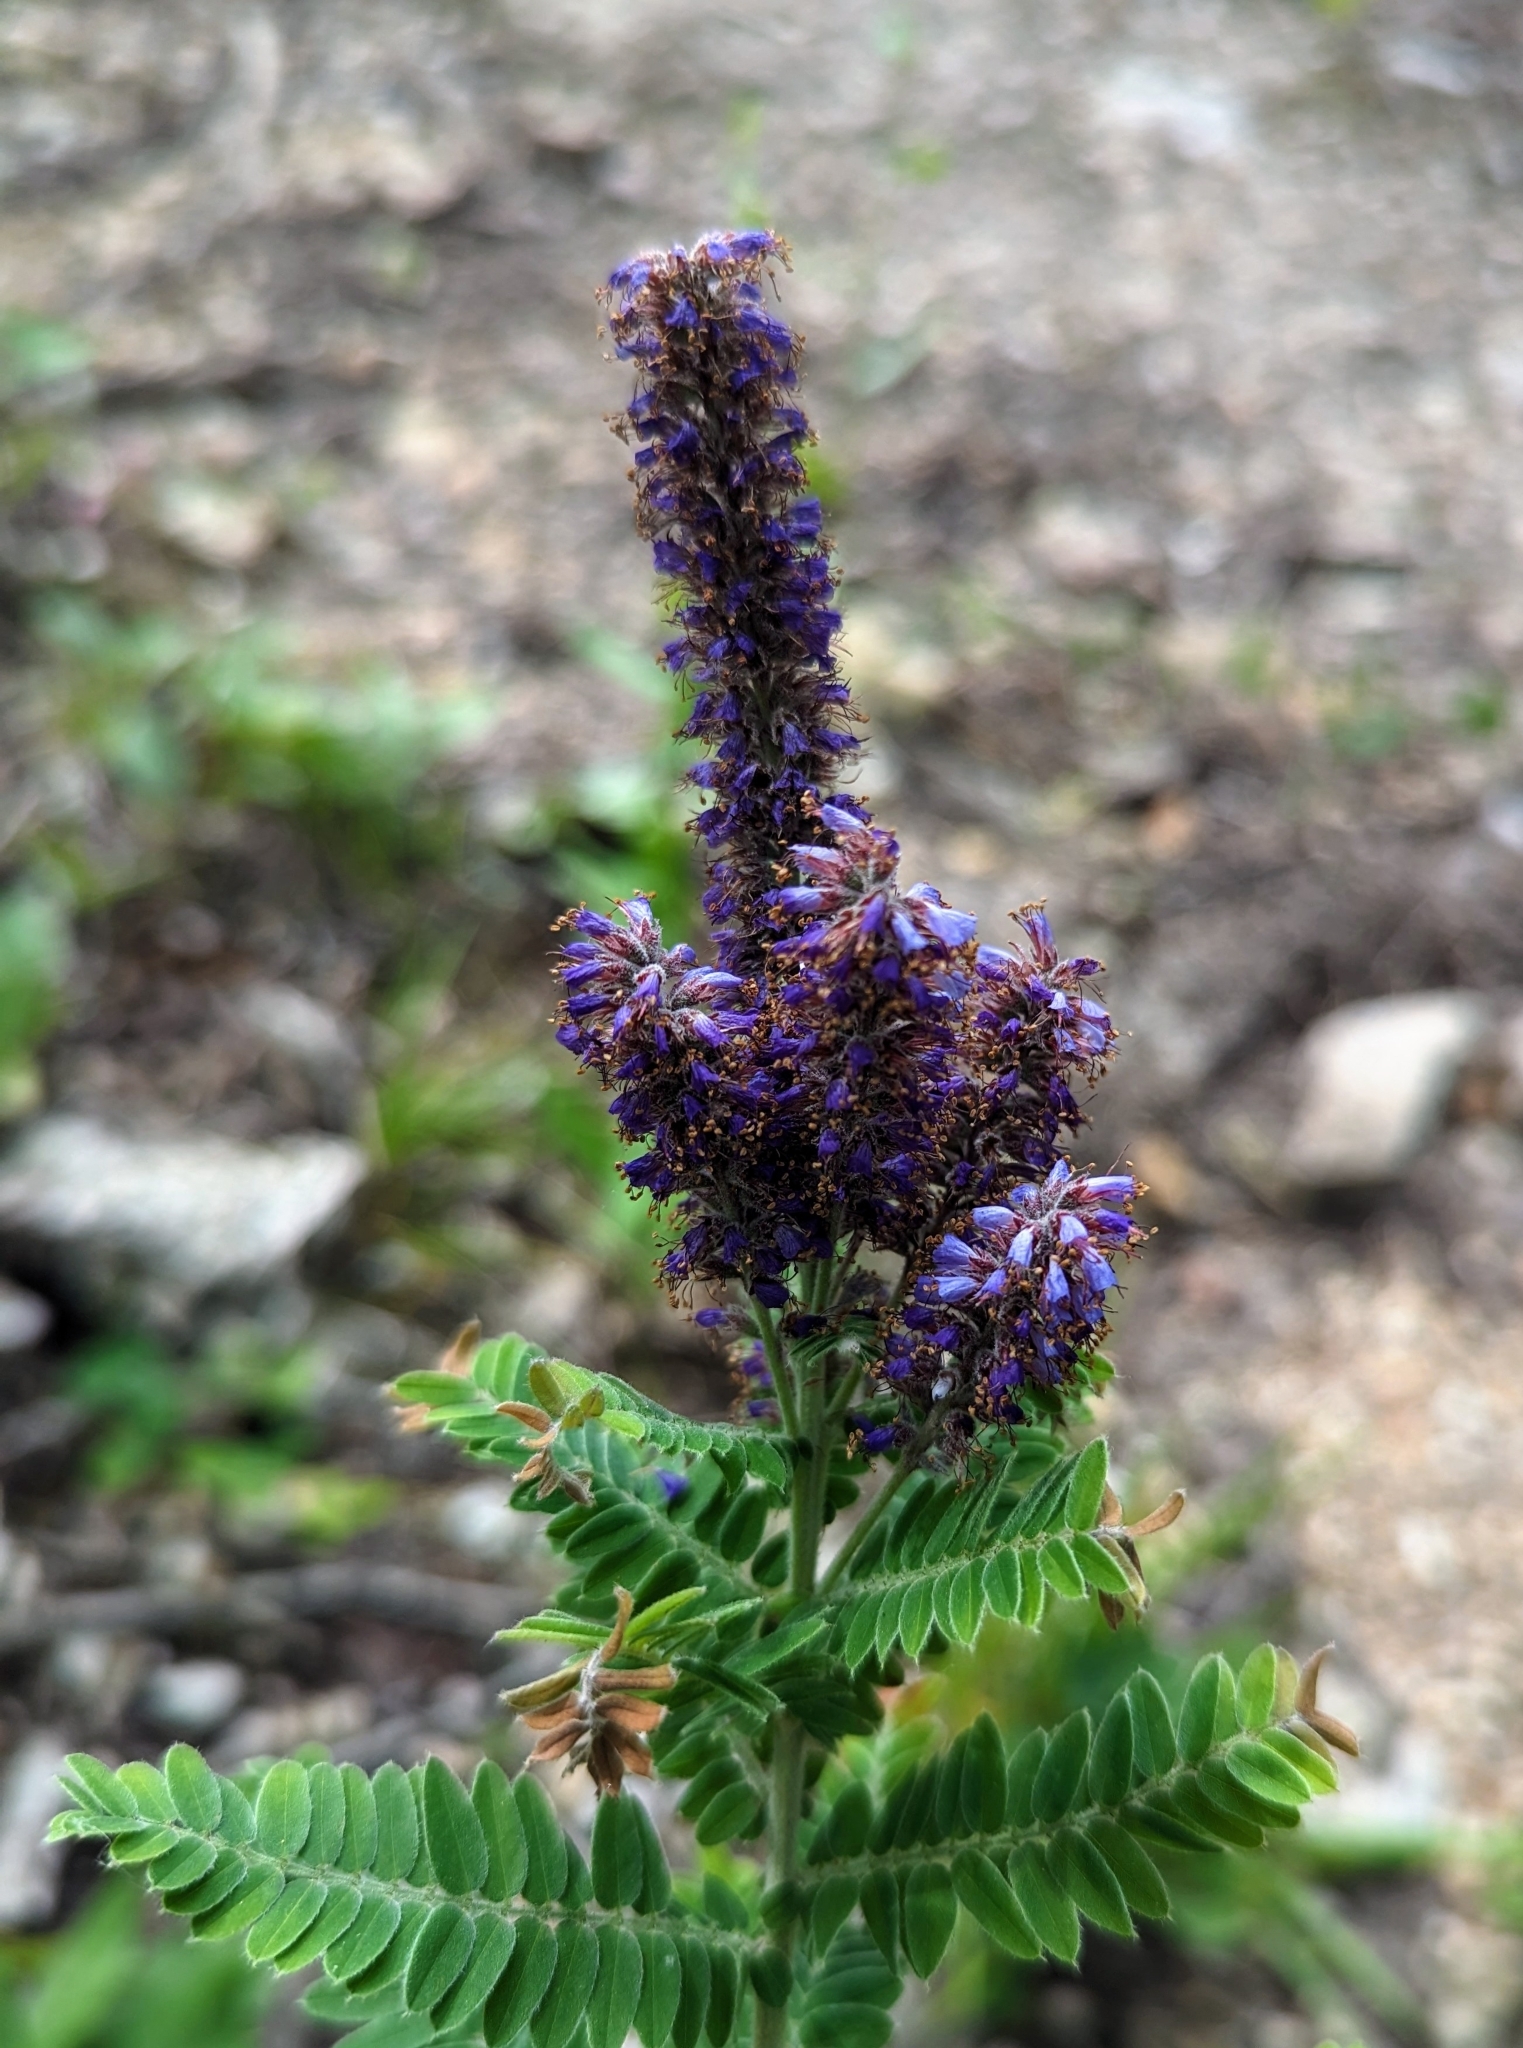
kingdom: Plantae
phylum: Tracheophyta
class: Magnoliopsida
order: Fabales
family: Fabaceae
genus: Amorpha
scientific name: Amorpha canescens
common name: Leadplant
